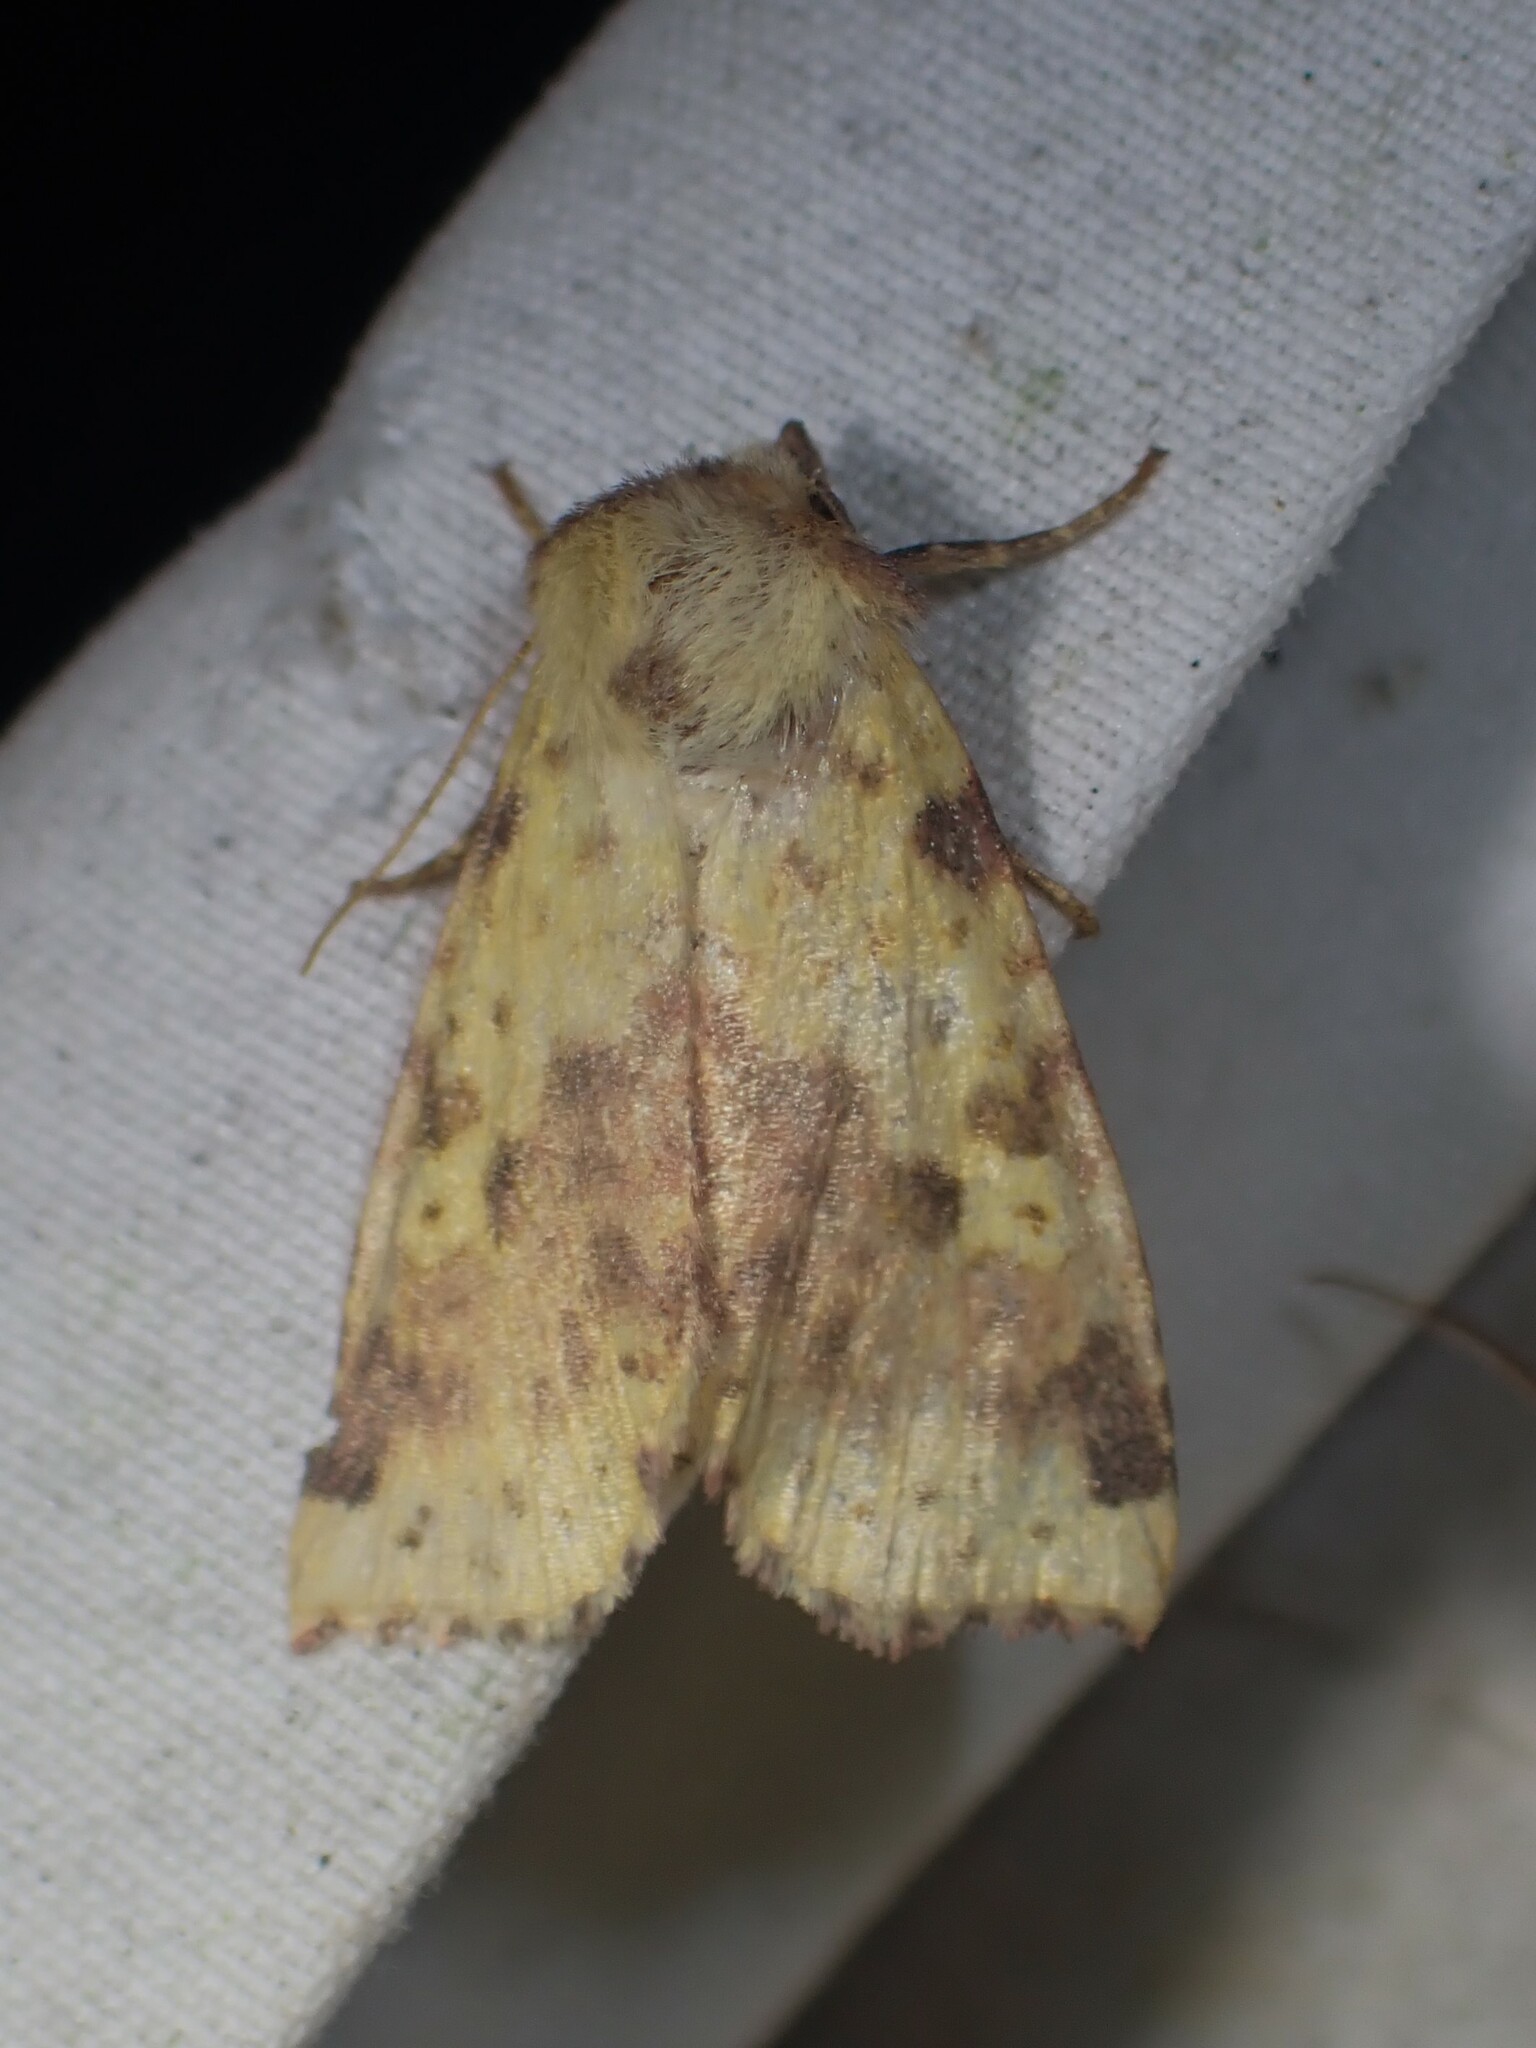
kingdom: Animalia
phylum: Arthropoda
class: Insecta
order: Lepidoptera
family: Noctuidae
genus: Xanthia
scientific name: Xanthia tatago
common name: Pink-banded sallow
